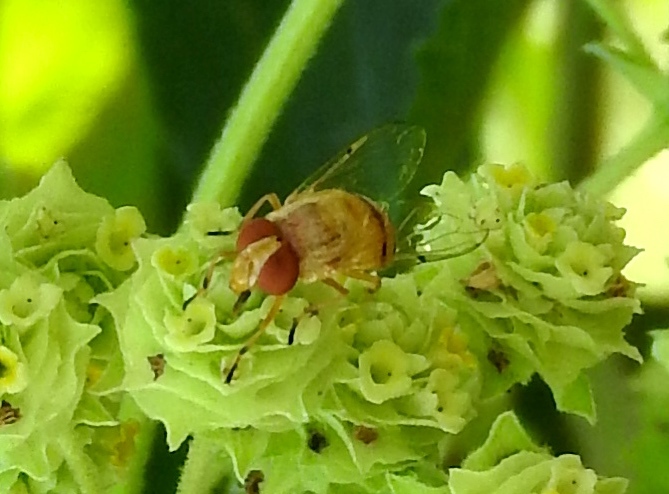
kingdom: Animalia
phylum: Arthropoda
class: Insecta
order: Diptera
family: Syrphidae
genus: Copestylum
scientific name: Copestylum sexmaculatum
